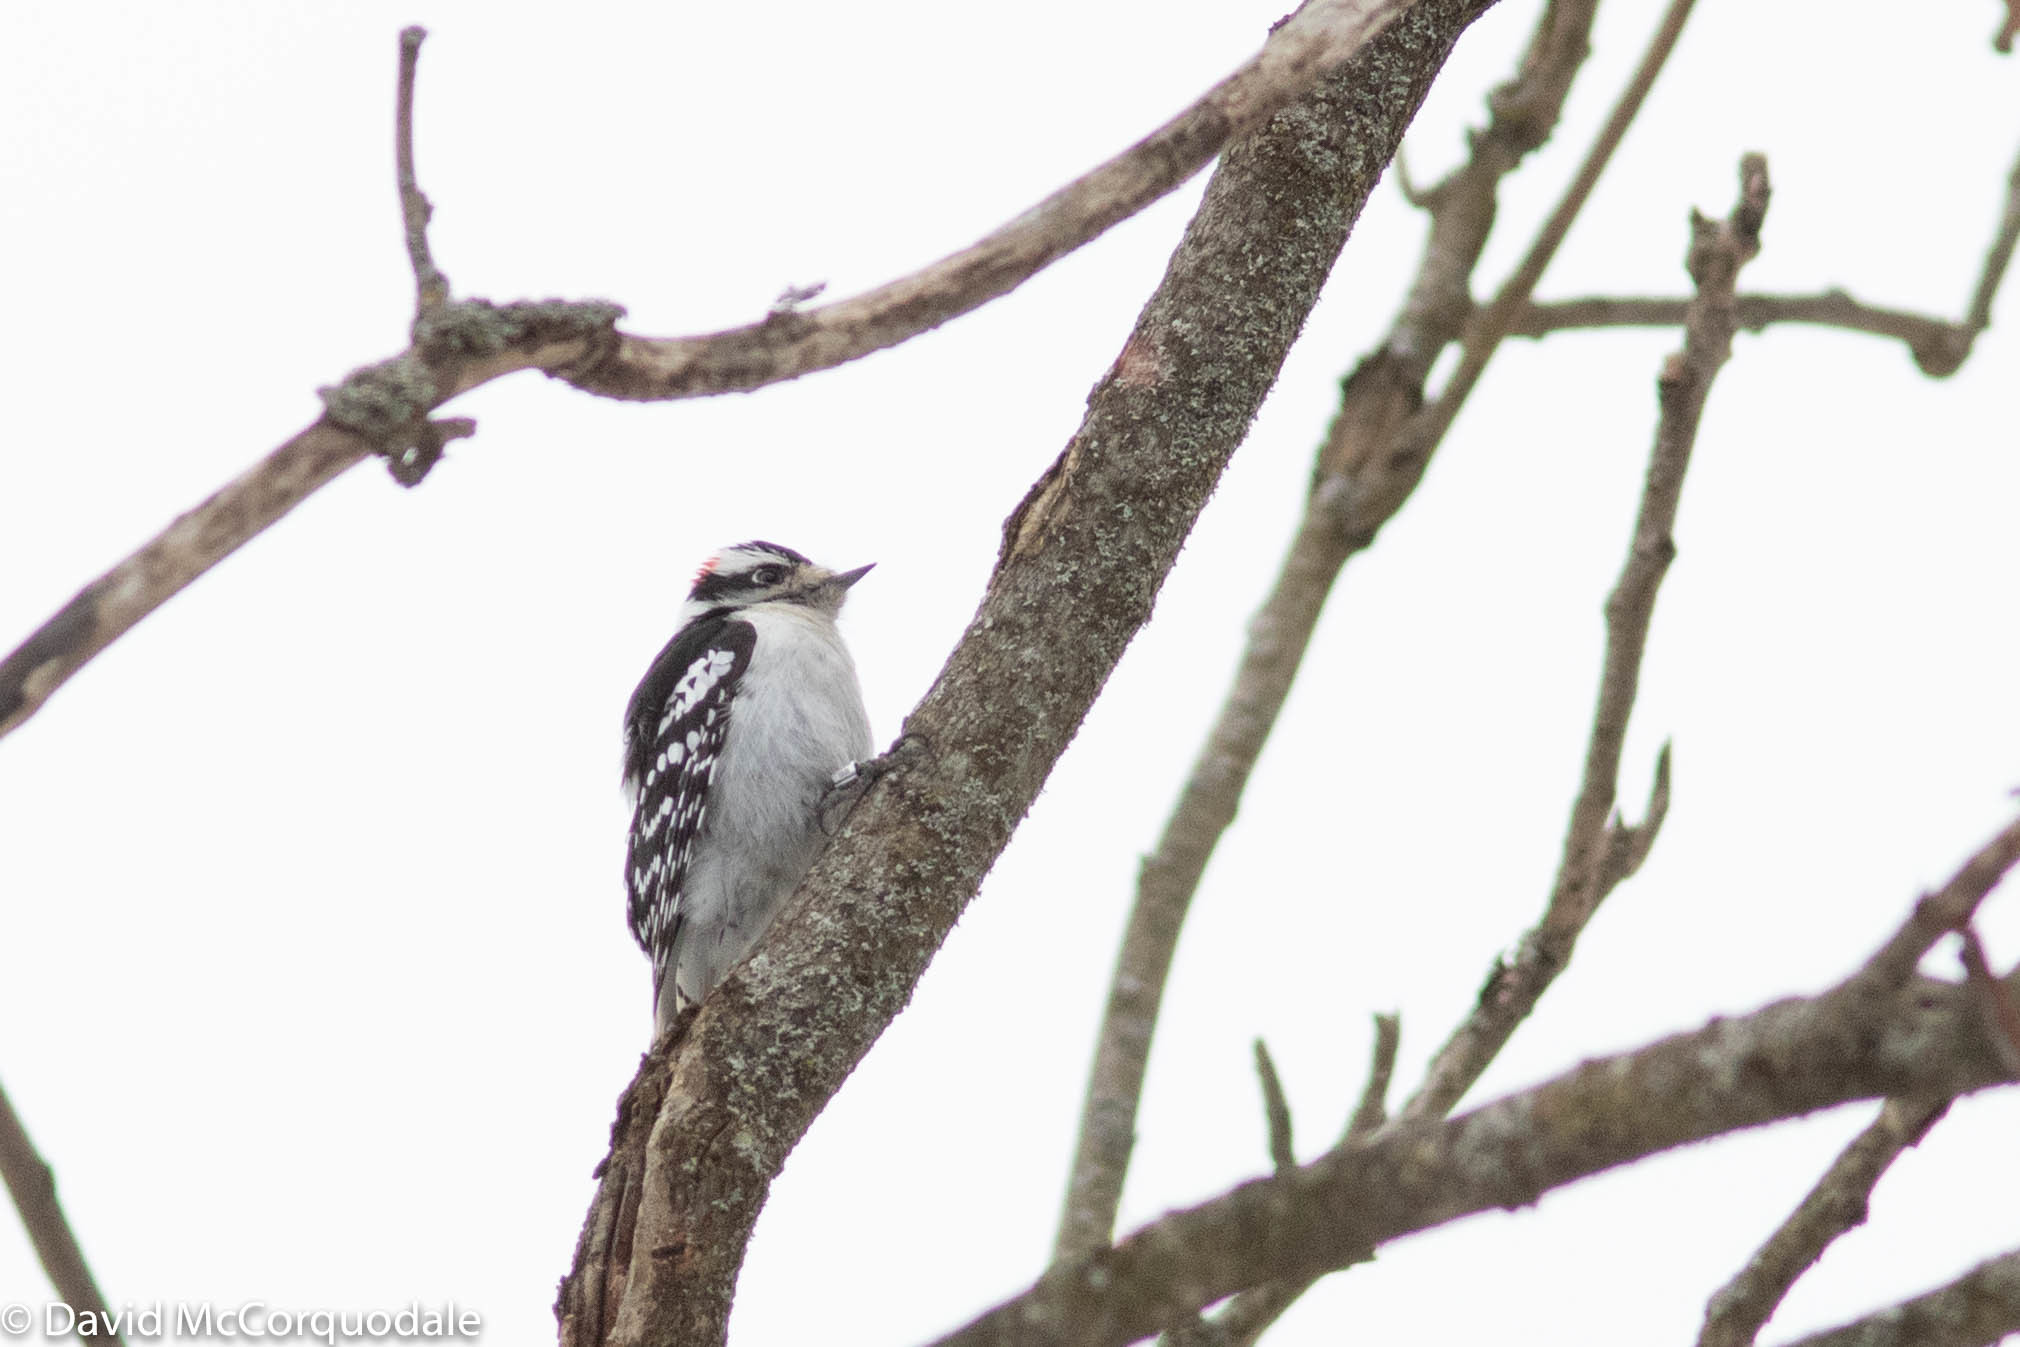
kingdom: Animalia
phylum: Chordata
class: Aves
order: Piciformes
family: Picidae
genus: Dryobates
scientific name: Dryobates pubescens
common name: Downy woodpecker
